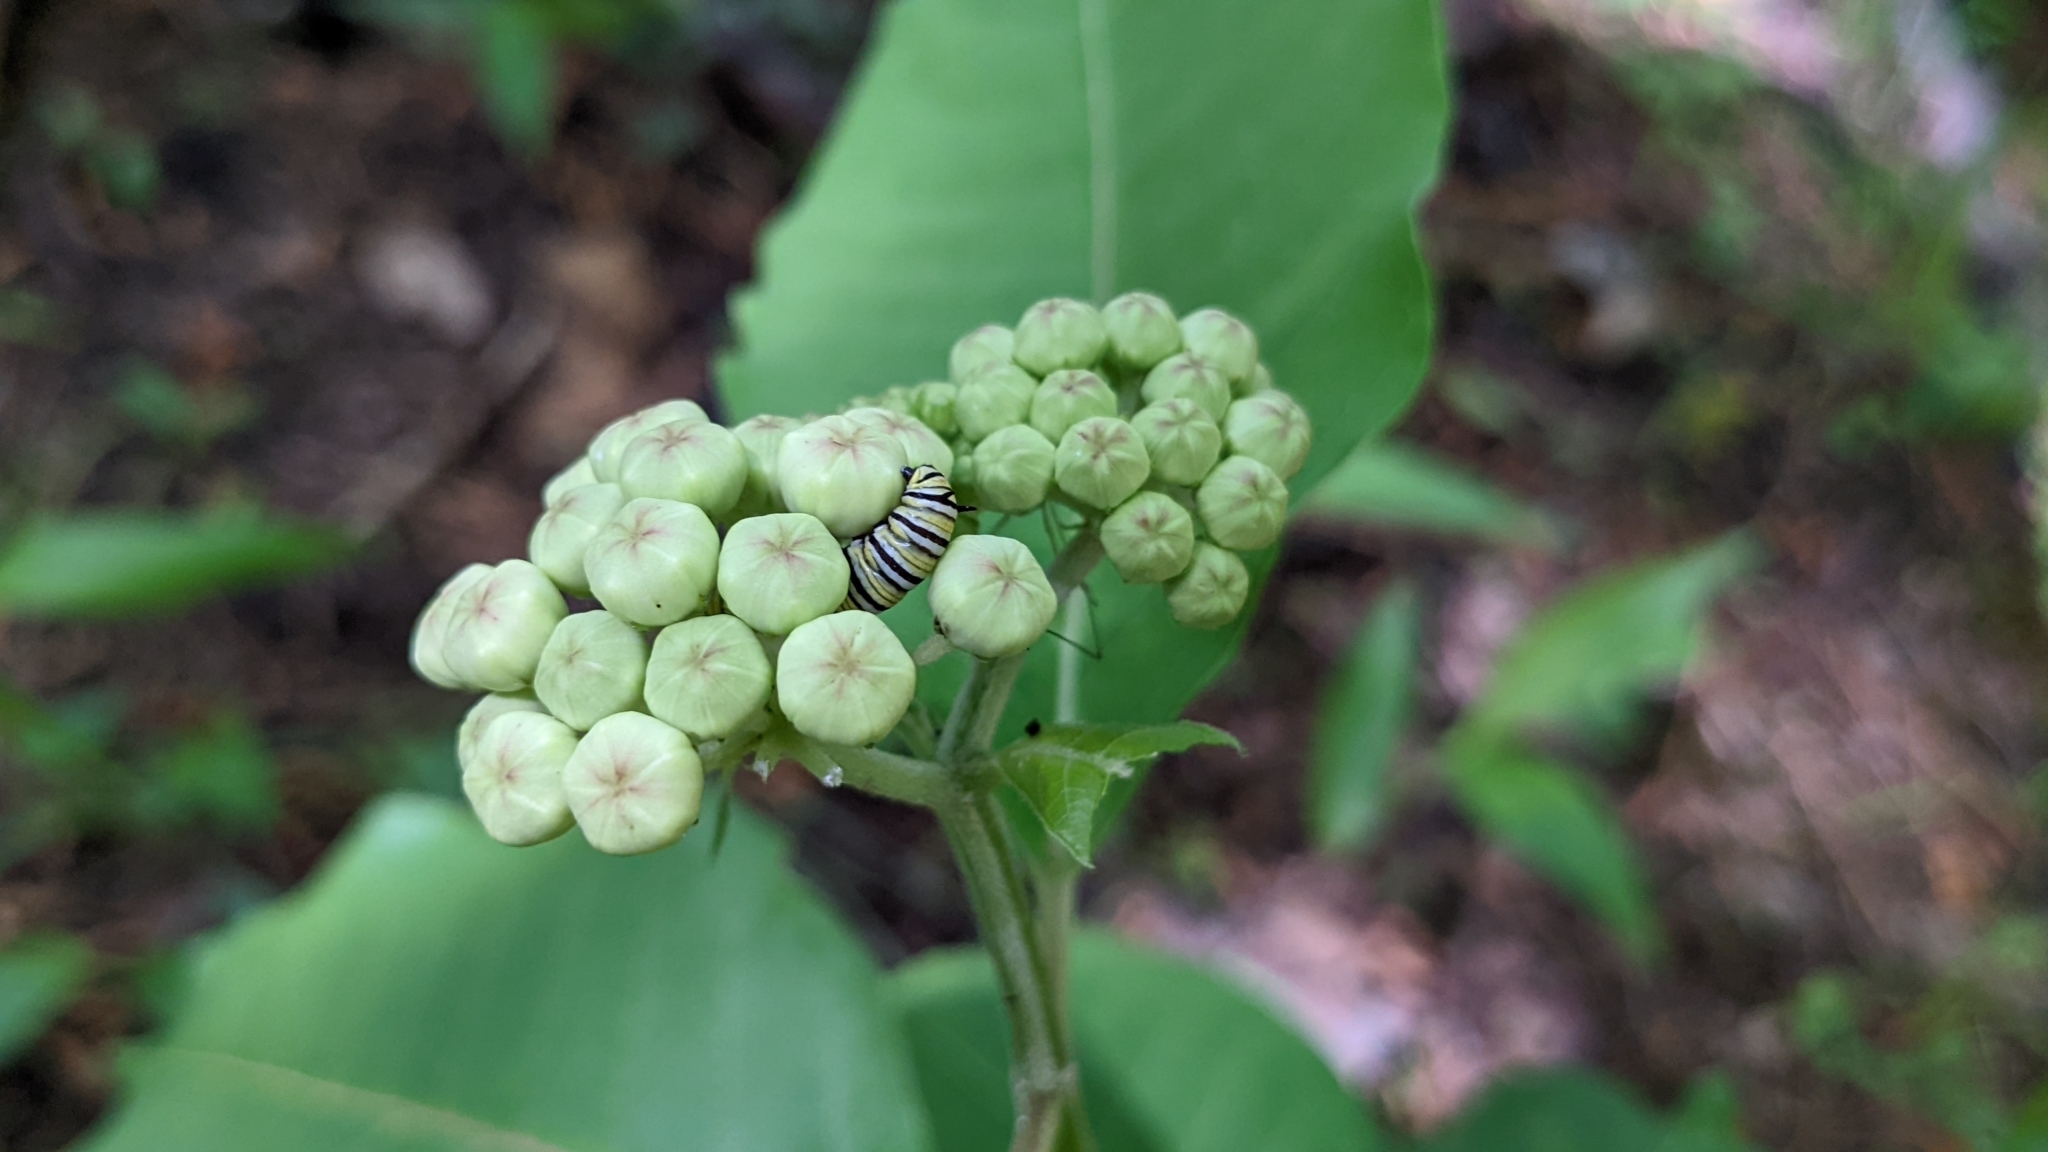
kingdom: Animalia
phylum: Arthropoda
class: Insecta
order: Lepidoptera
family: Nymphalidae
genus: Danaus
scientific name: Danaus plexippus
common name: Monarch
